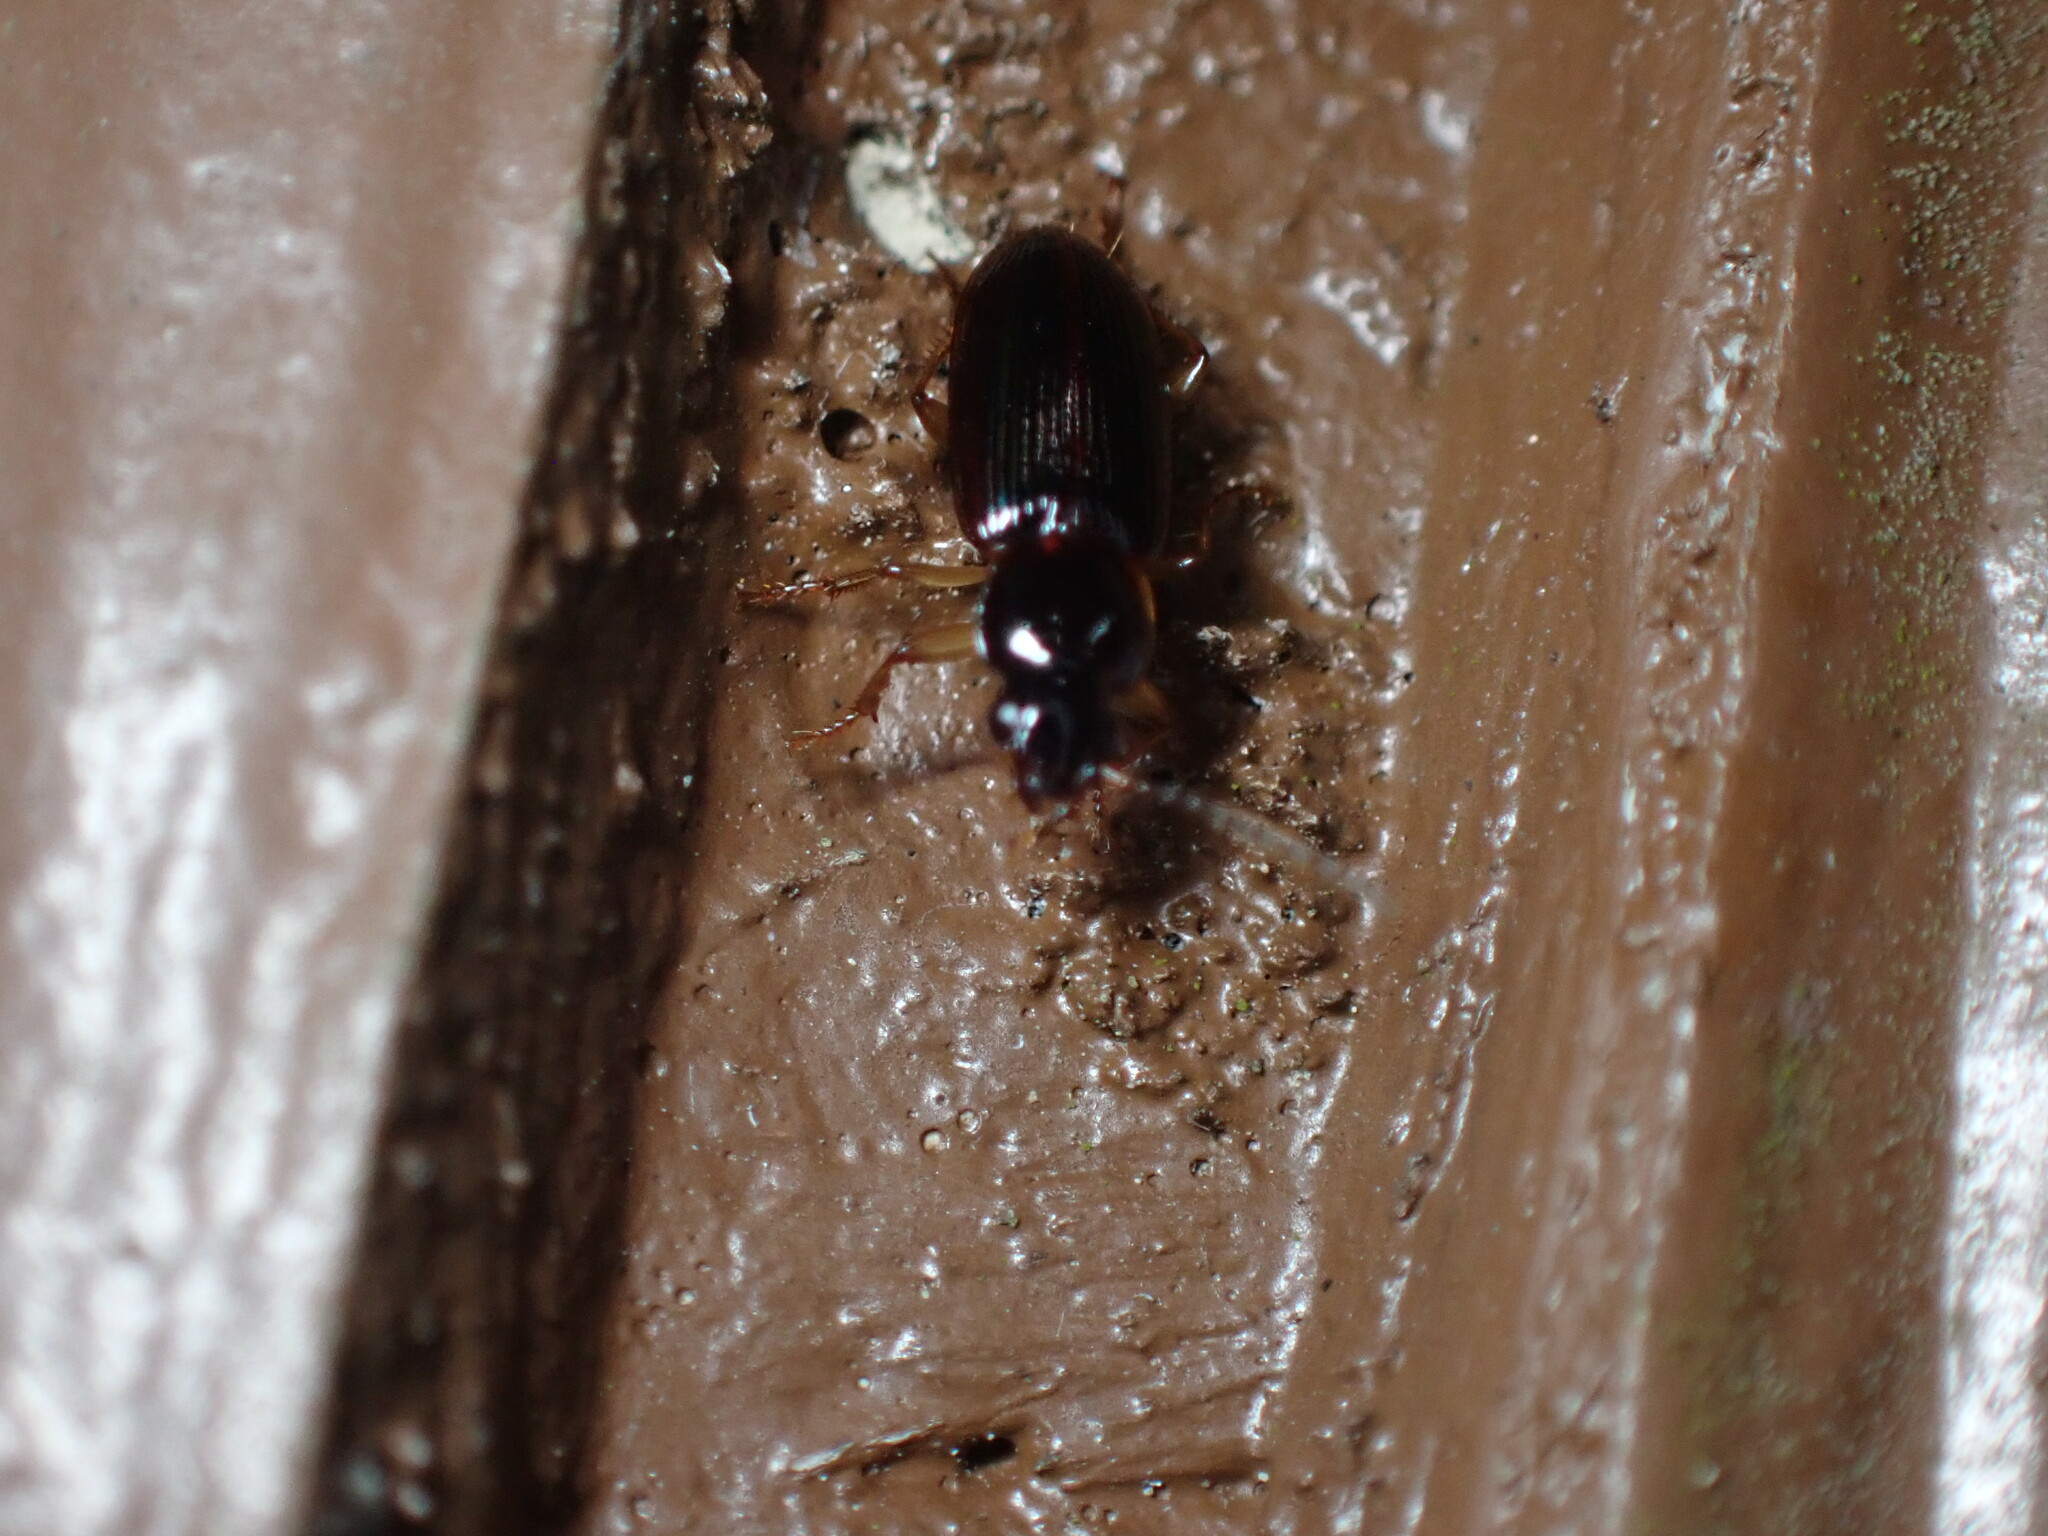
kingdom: Animalia
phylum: Arthropoda
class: Insecta
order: Coleoptera
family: Carabidae
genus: Stenolophus
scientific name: Stenolophus ochropezus
